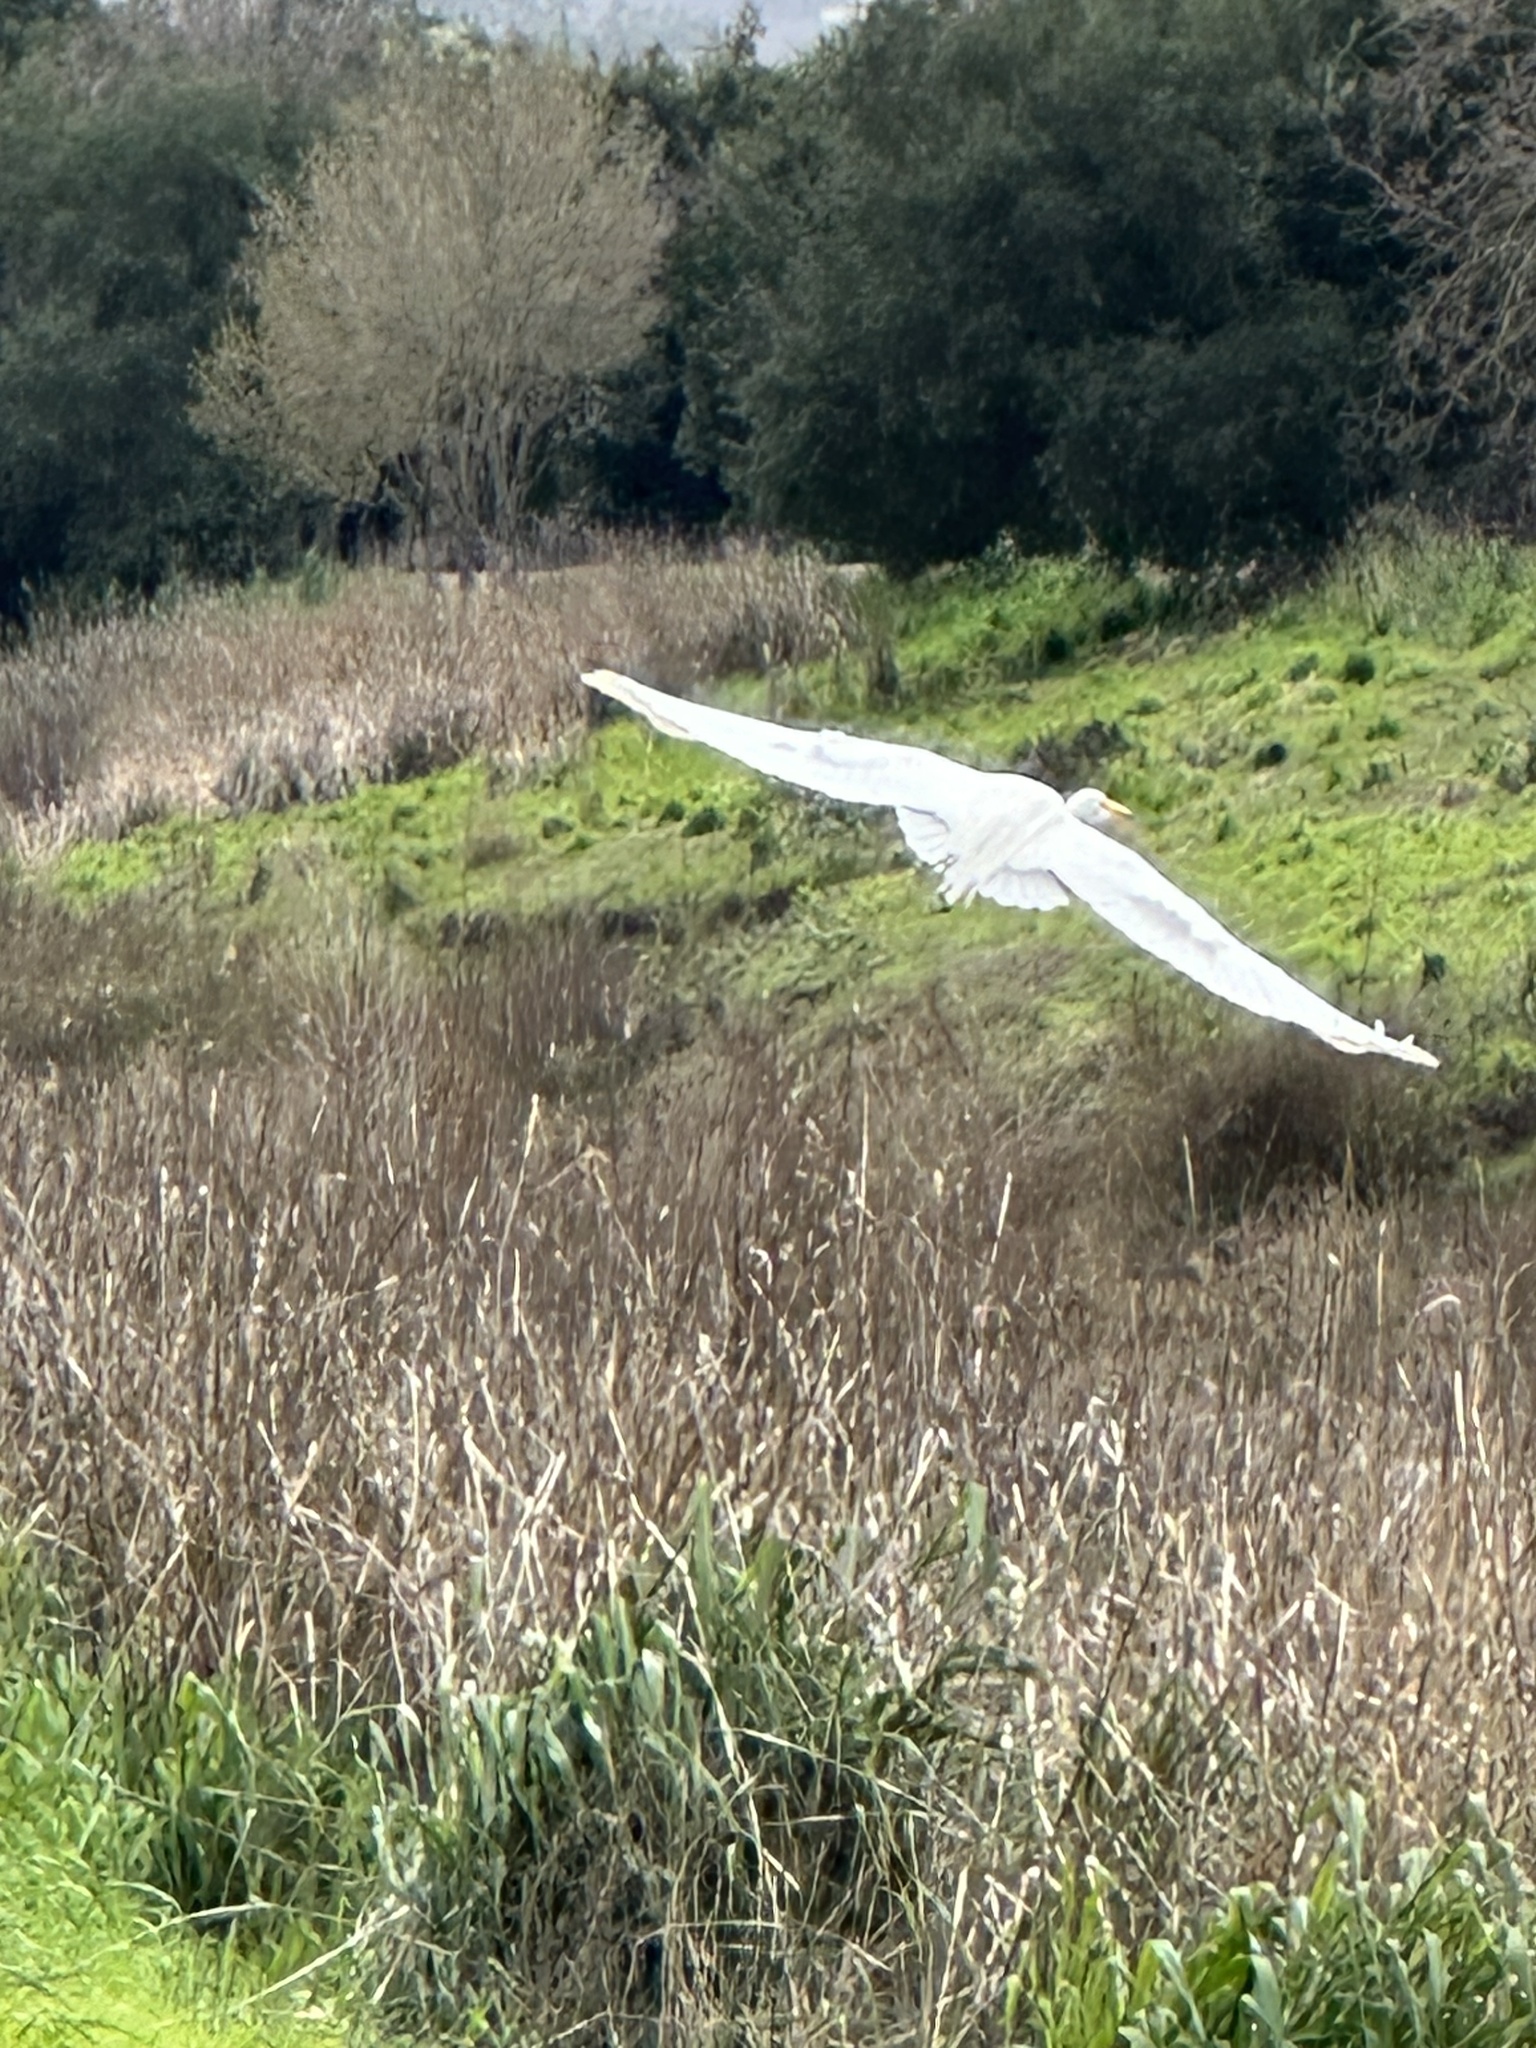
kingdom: Animalia
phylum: Chordata
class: Aves
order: Pelecaniformes
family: Ardeidae
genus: Ardea
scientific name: Ardea alba
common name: Great egret
